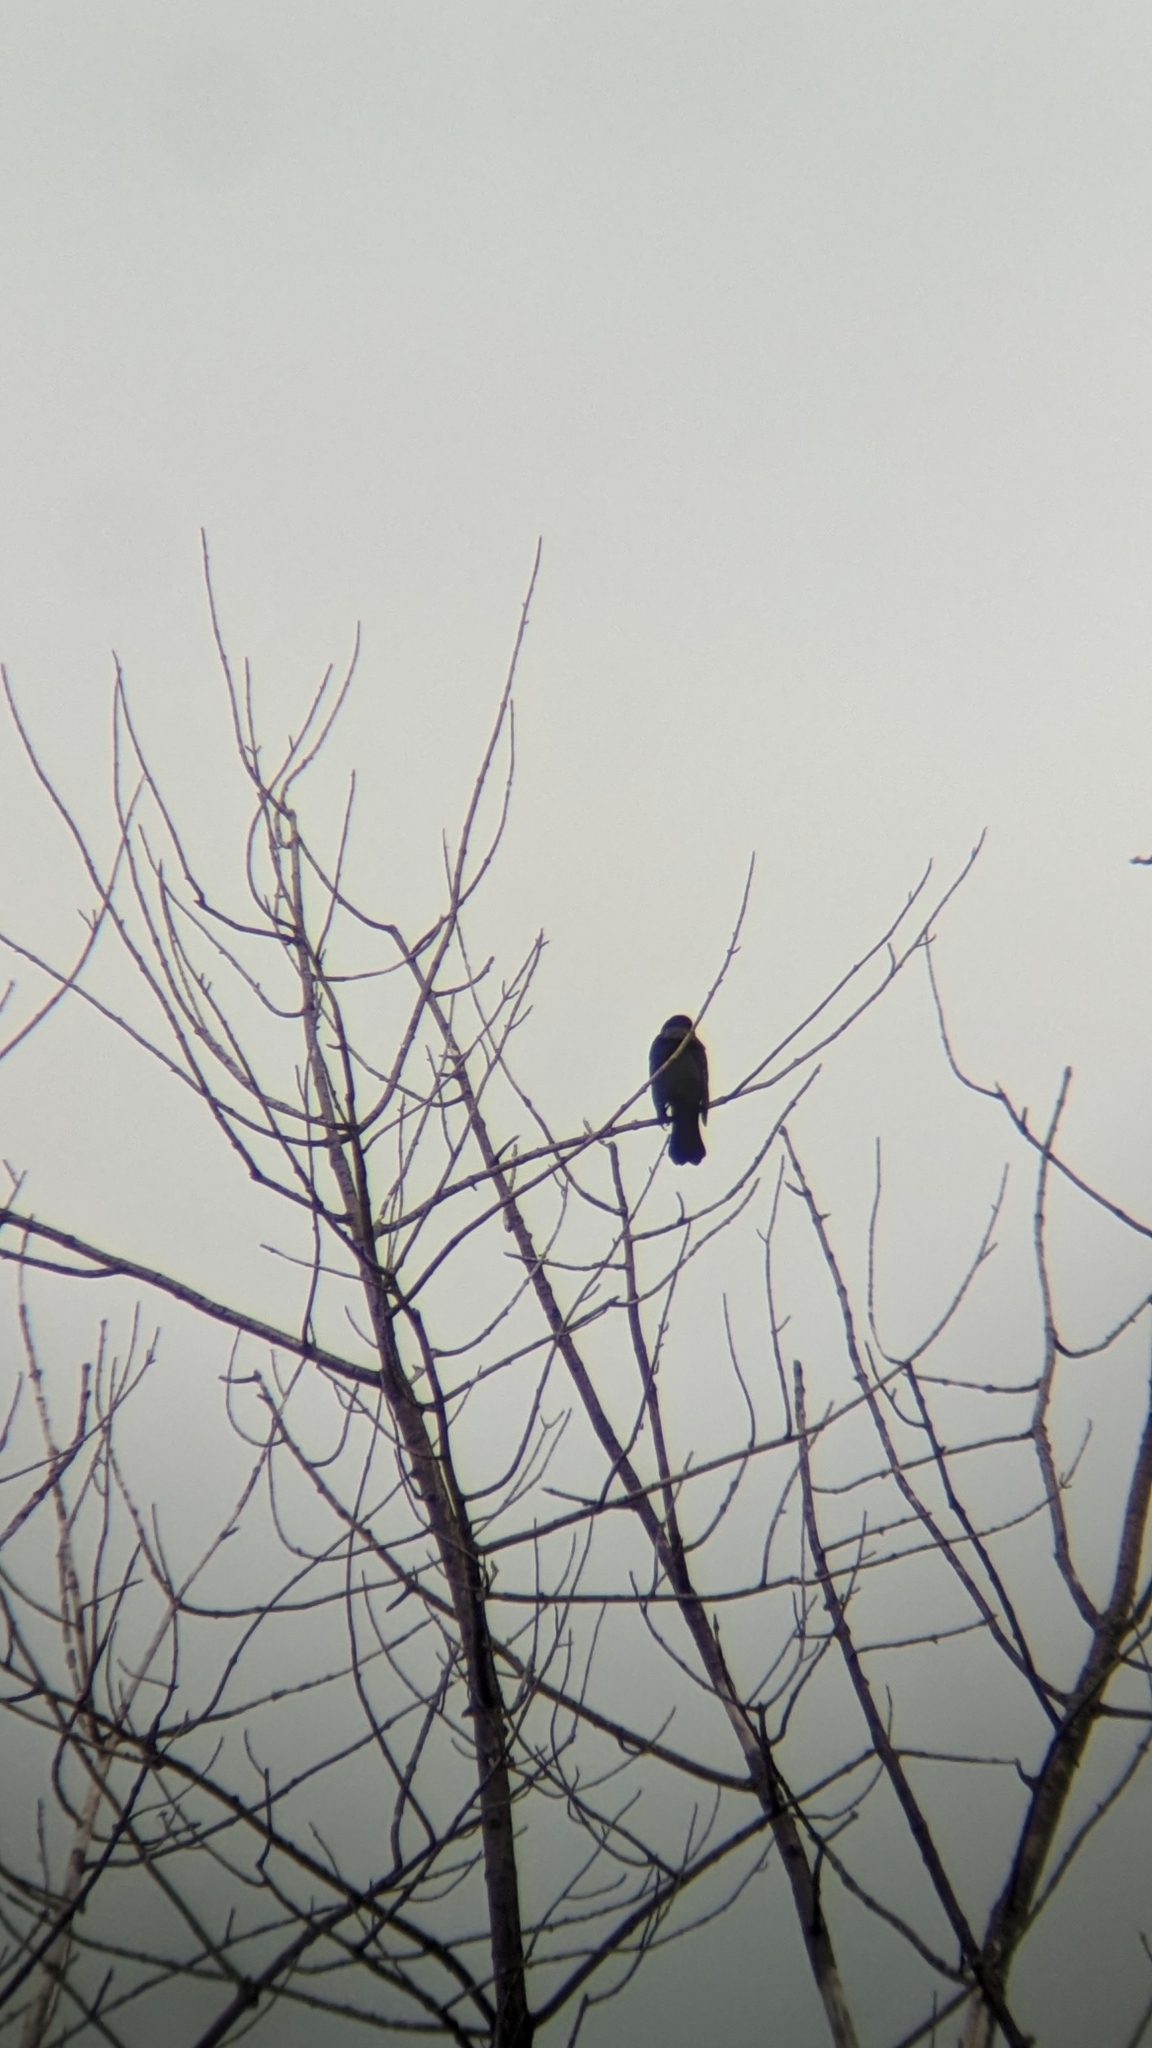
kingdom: Animalia
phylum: Chordata
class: Aves
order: Passeriformes
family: Icteridae
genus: Agelaius
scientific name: Agelaius phoeniceus
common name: Red-winged blackbird
